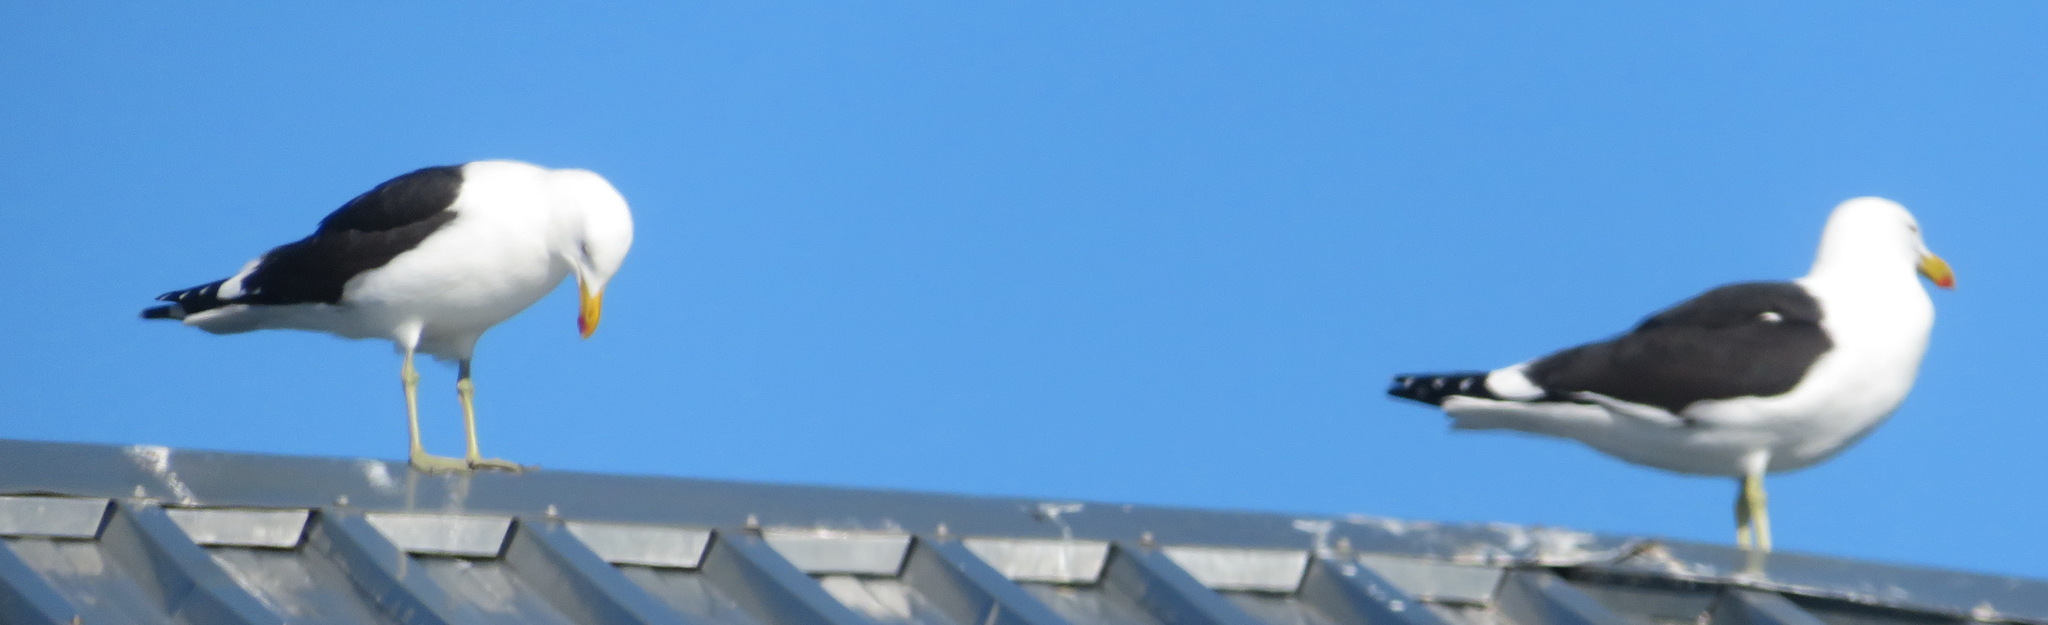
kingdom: Animalia
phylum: Chordata
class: Aves
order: Charadriiformes
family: Laridae
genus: Larus
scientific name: Larus dominicanus
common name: Kelp gull
